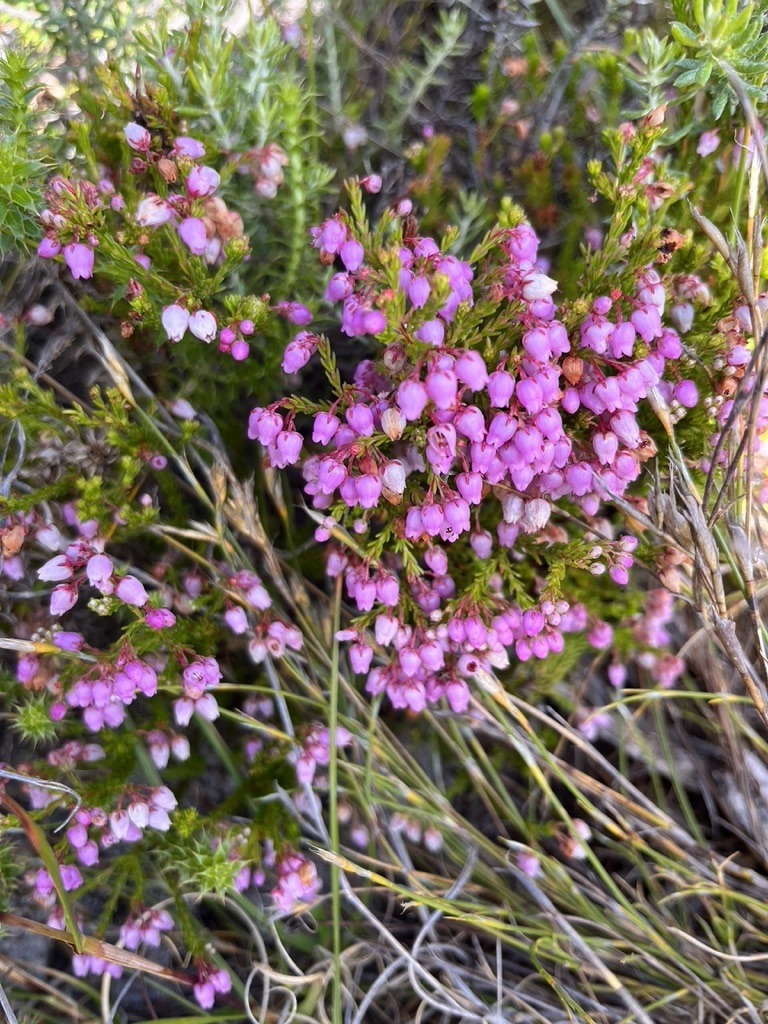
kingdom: Plantae
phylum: Tracheophyta
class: Magnoliopsida
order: Ericales
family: Ericaceae
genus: Erica
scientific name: Erica laeta
